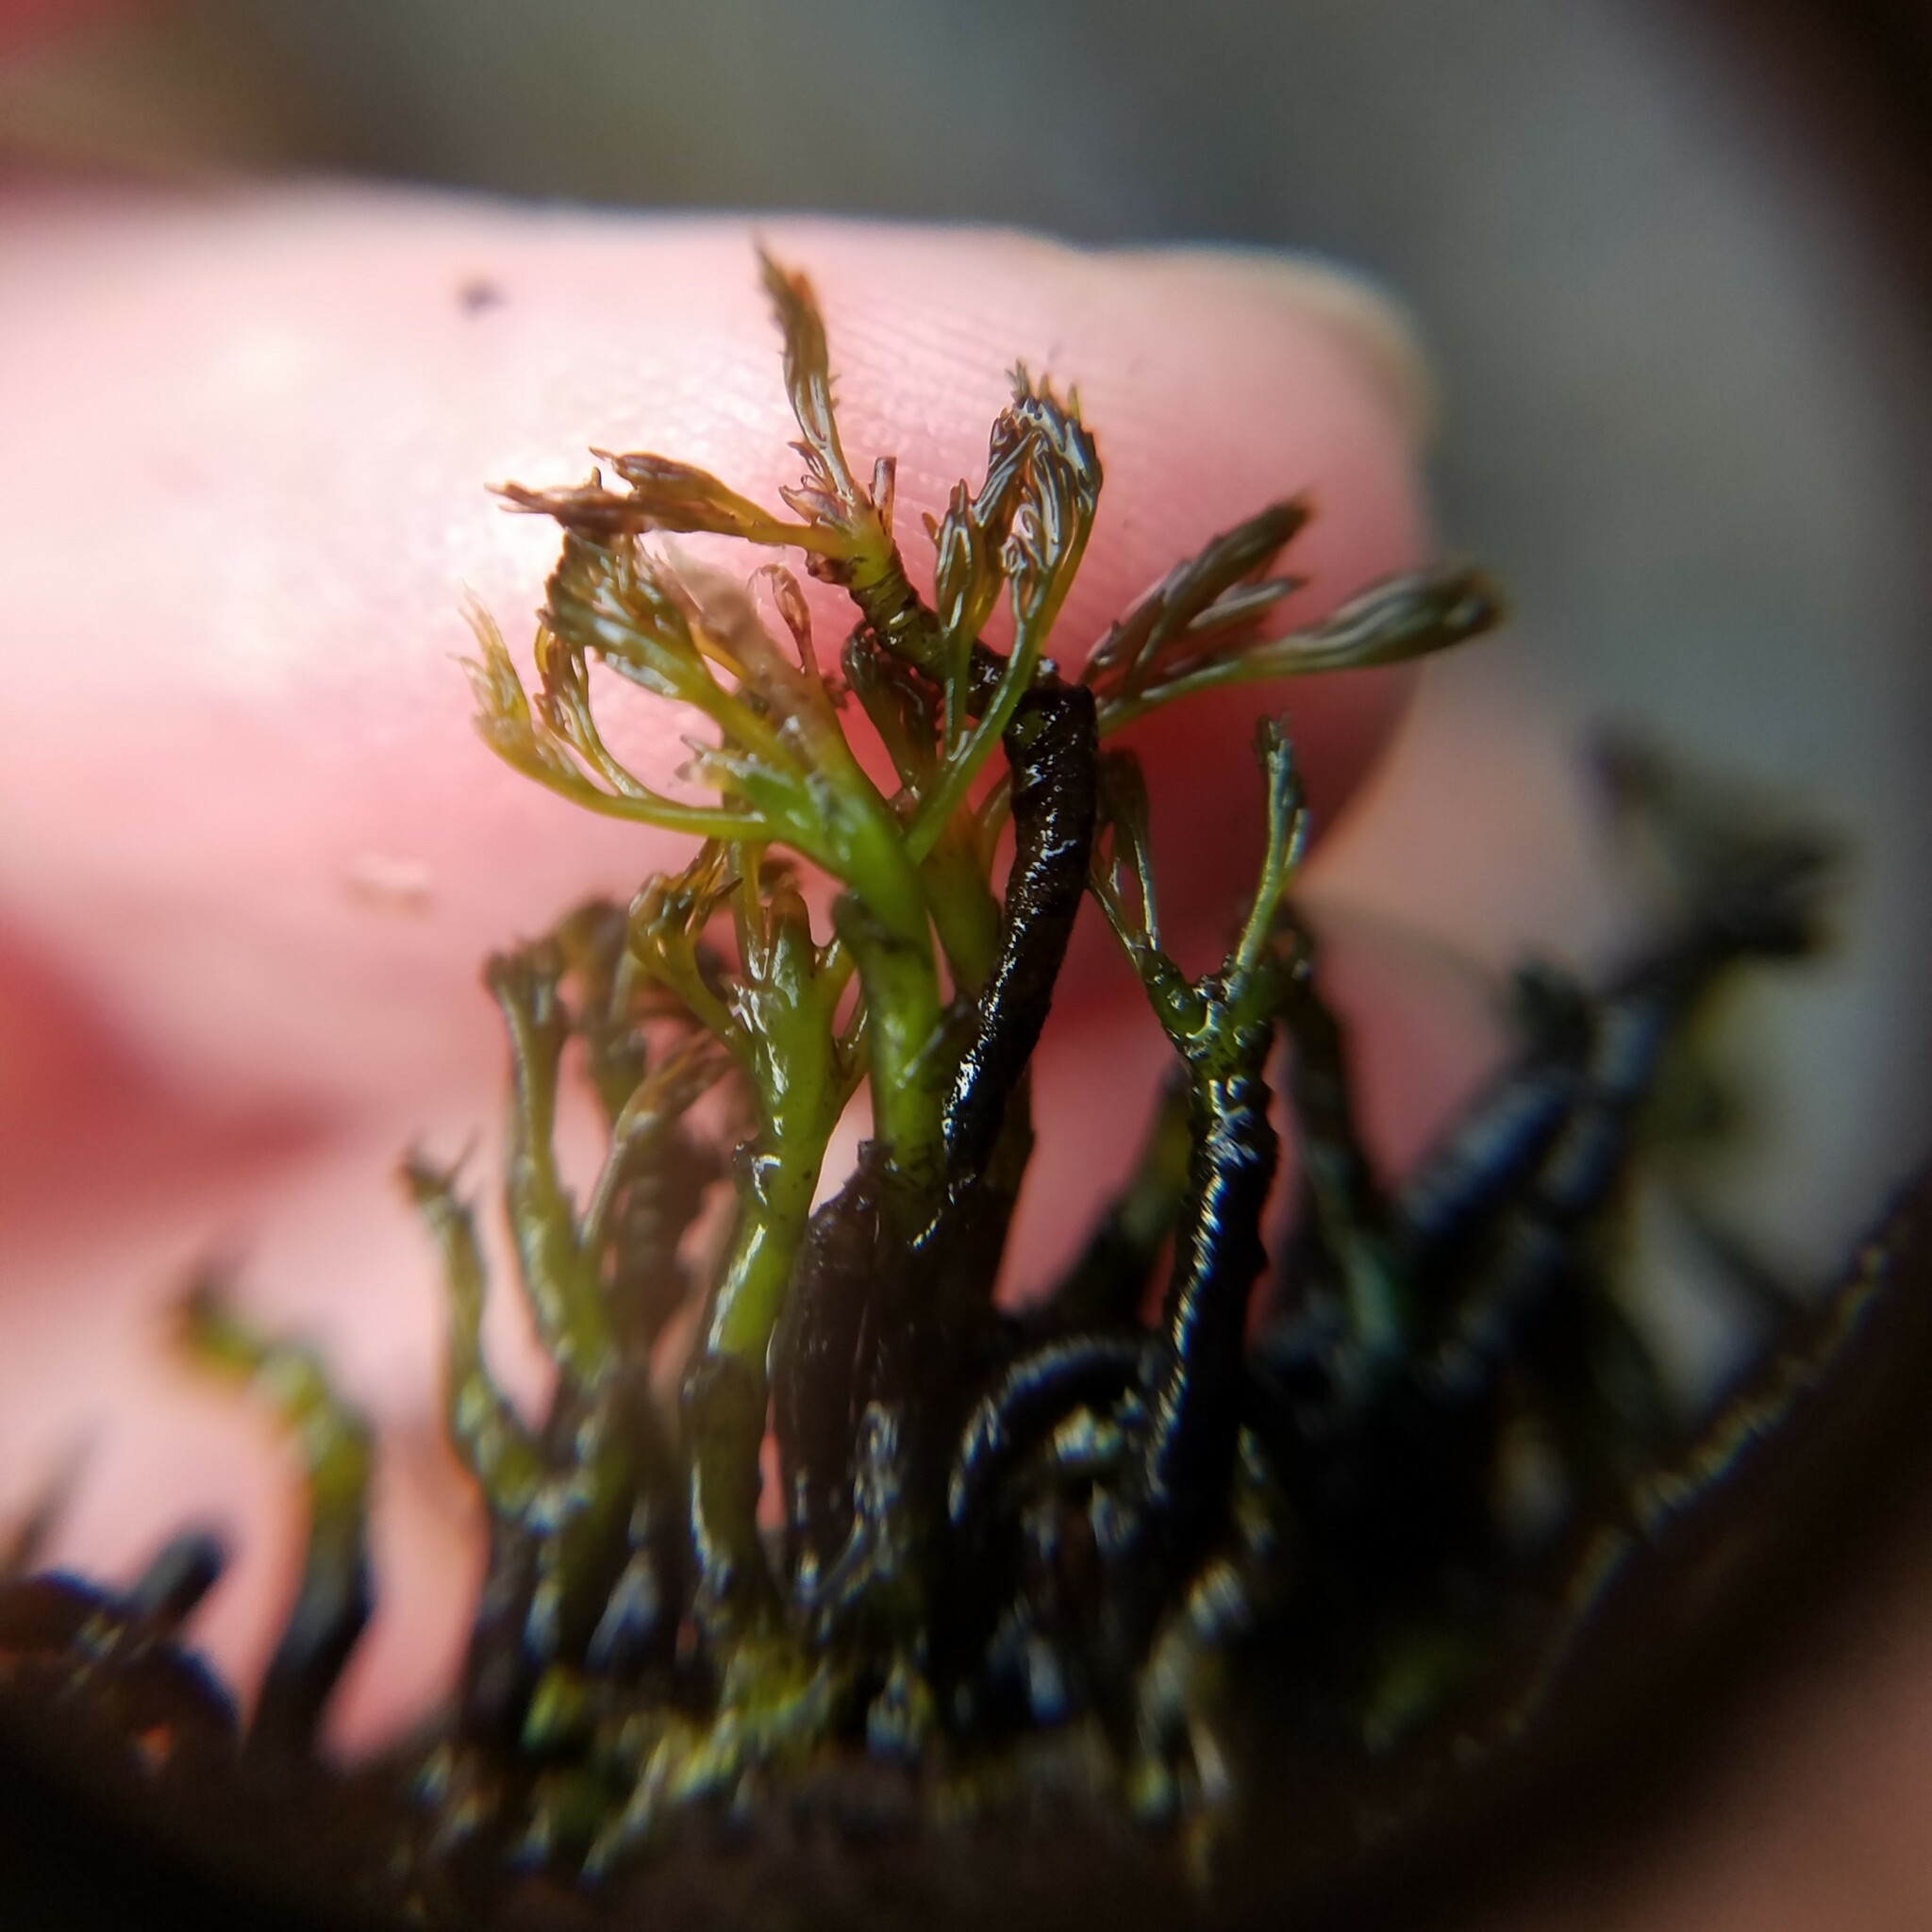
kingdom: Plantae
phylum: Tracheophyta
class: Magnoliopsida
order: Malpighiales
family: Podostemaceae
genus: Podostemum
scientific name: Podostemum ceratophyllum
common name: Horn-leaved riverweed
